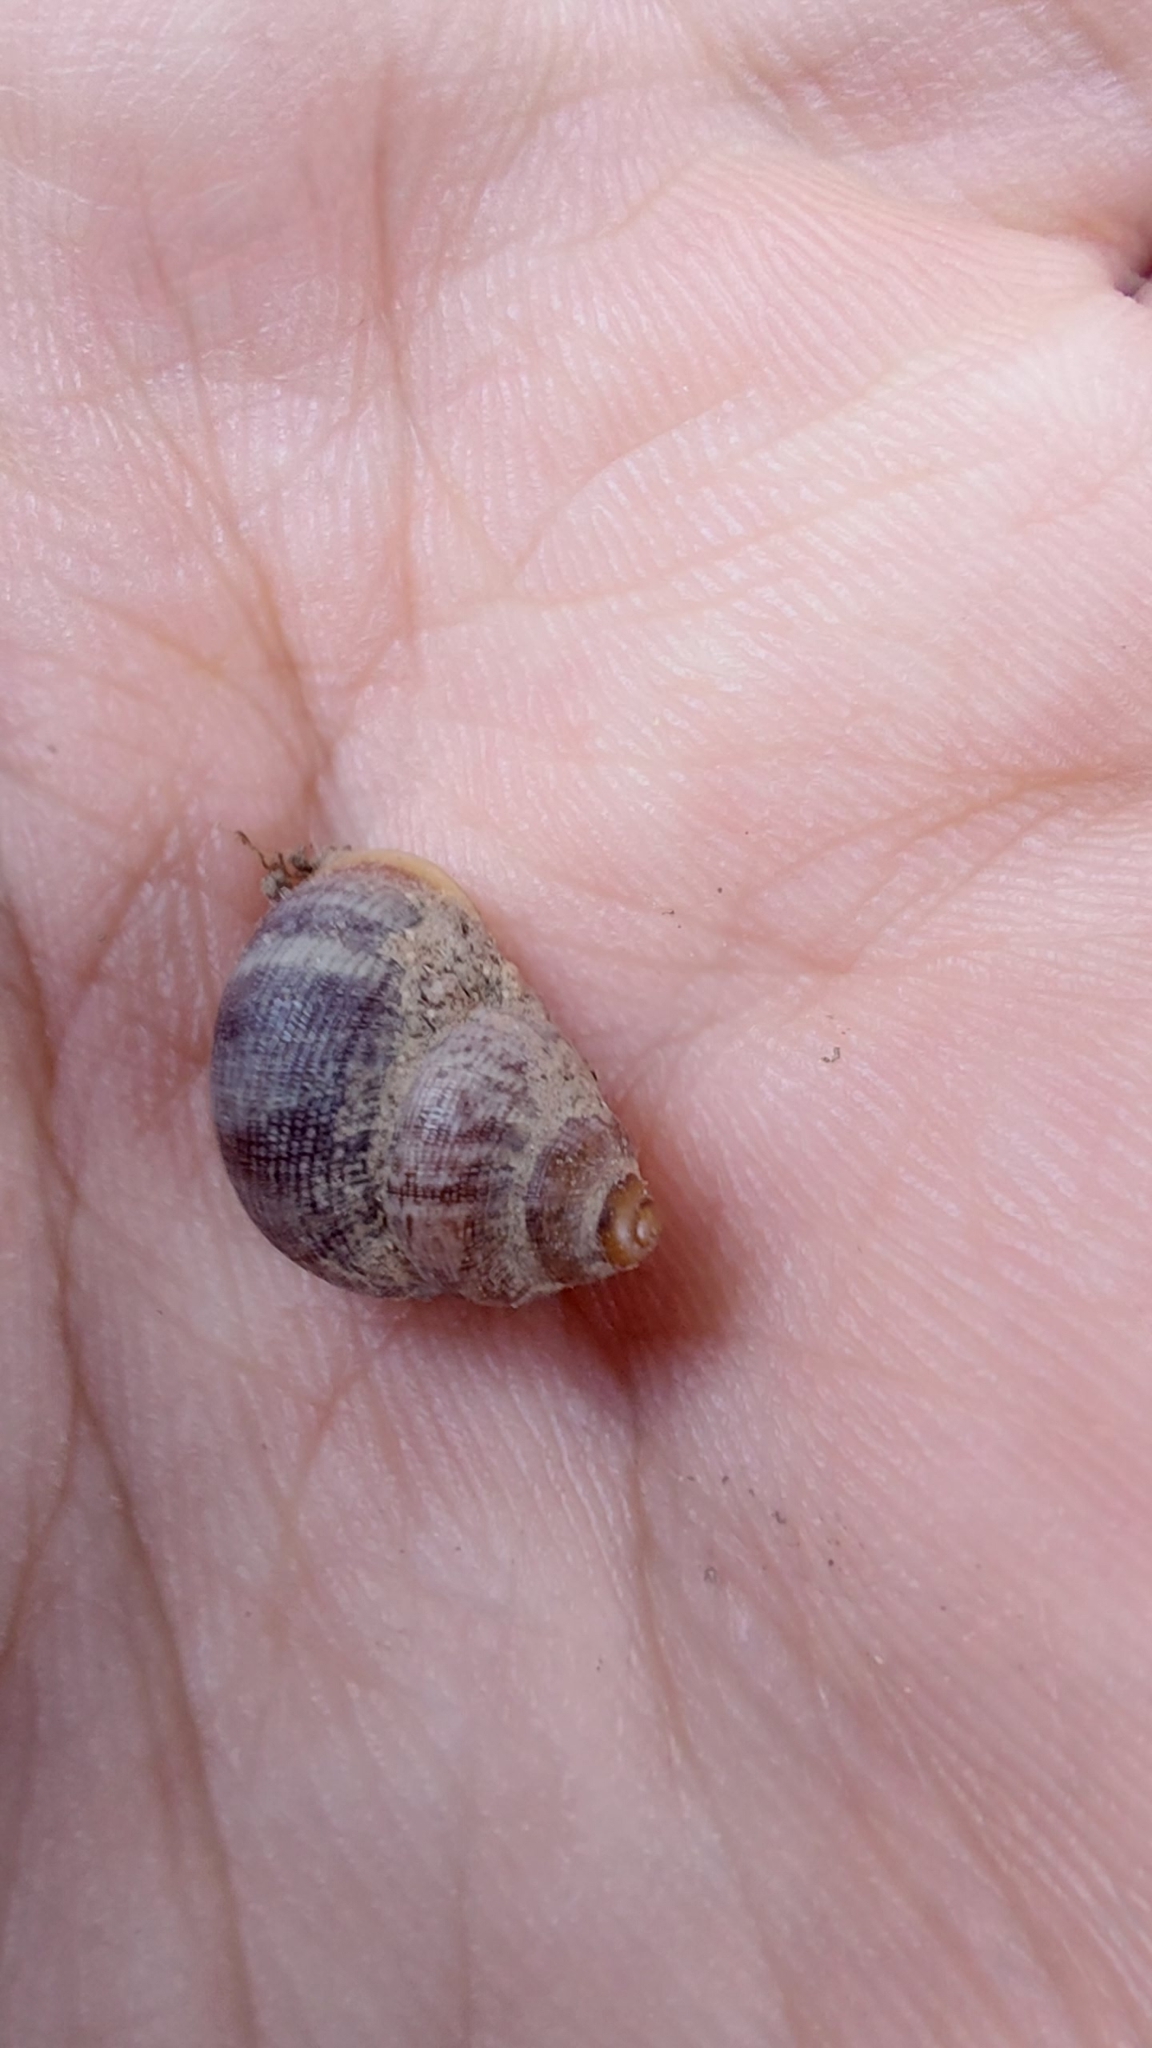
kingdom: Animalia
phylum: Mollusca
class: Gastropoda
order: Littorinimorpha
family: Pomatiidae
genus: Pomatias
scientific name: Pomatias elegans
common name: Red-mouthed snail
